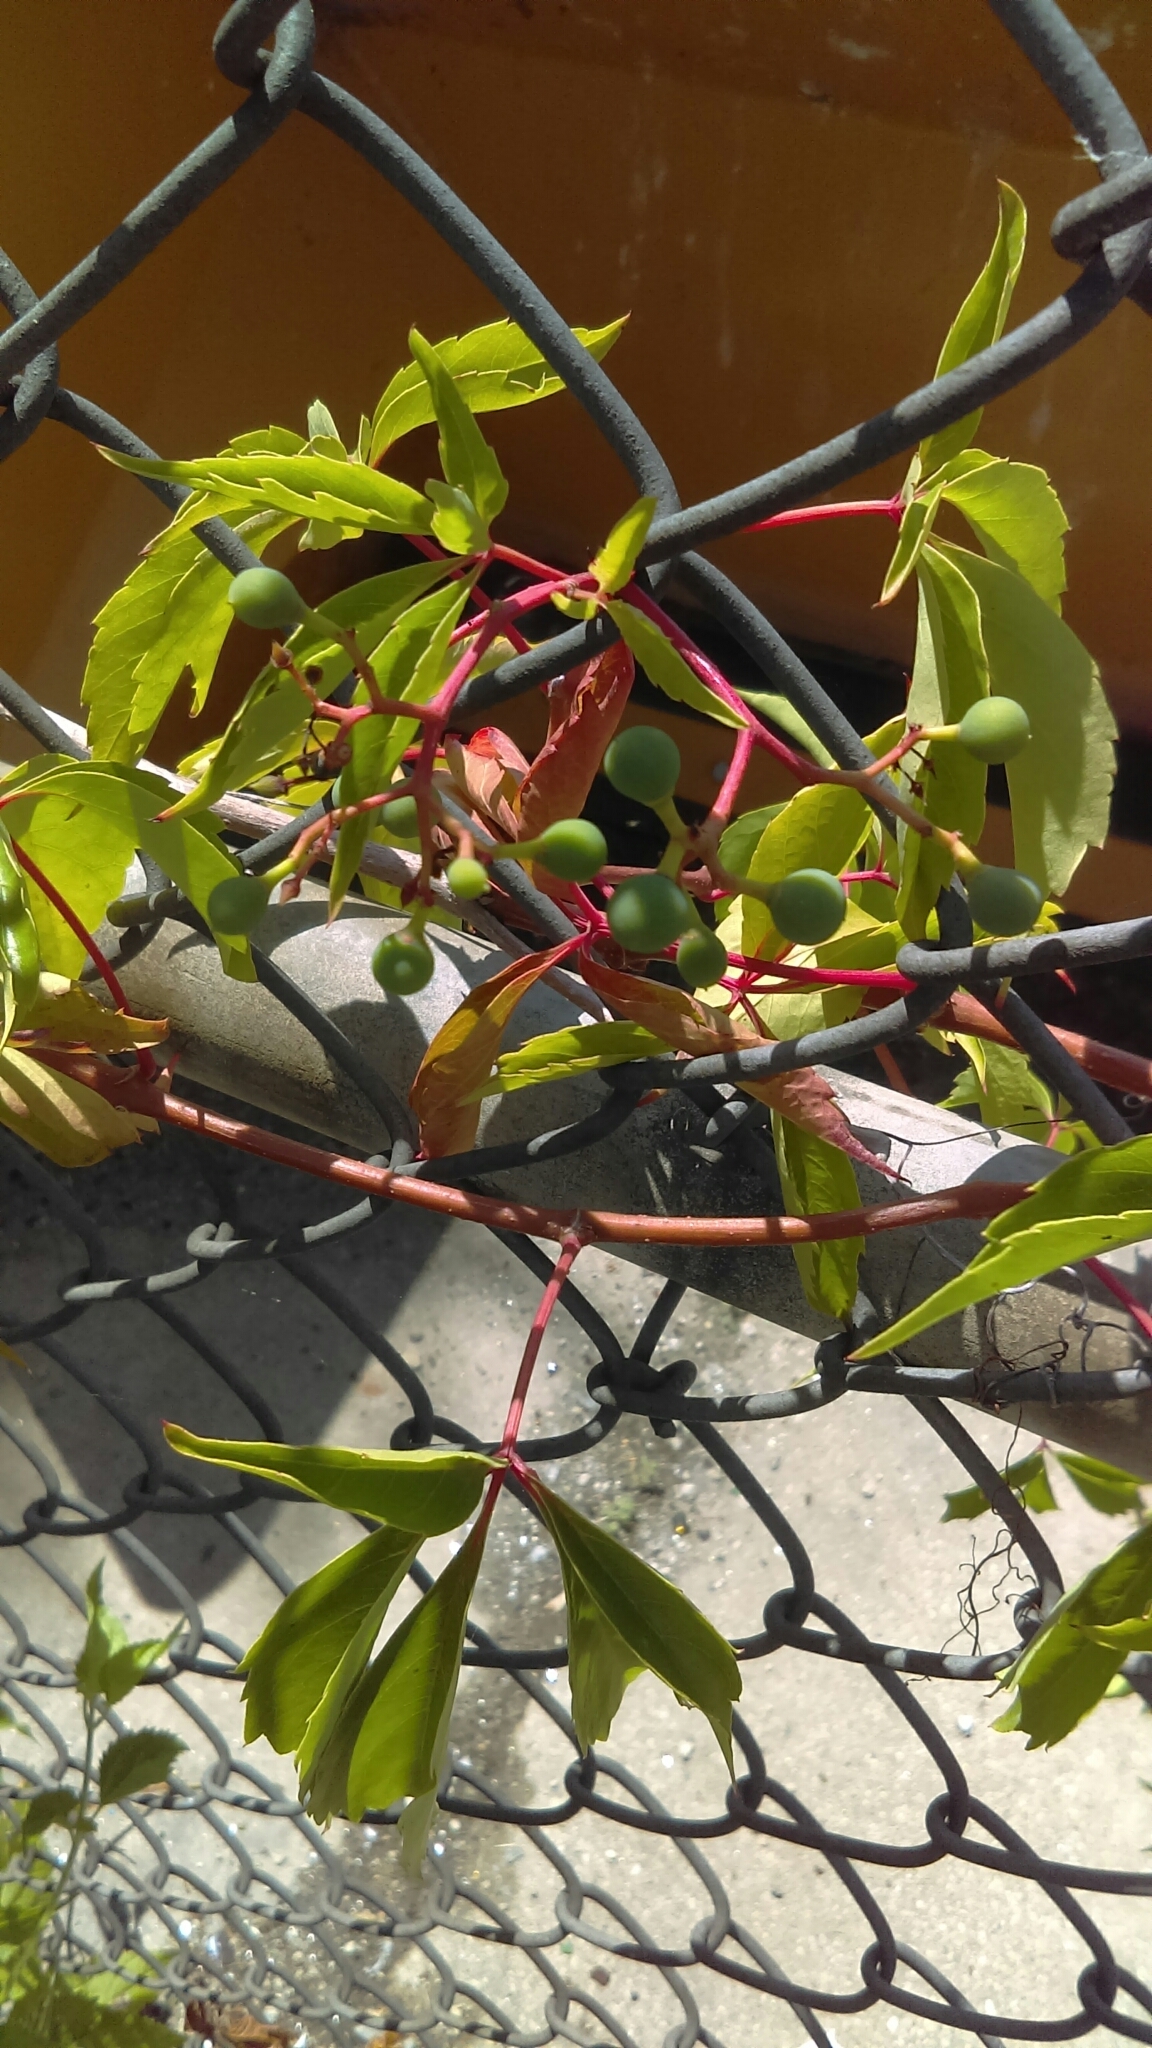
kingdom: Plantae
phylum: Tracheophyta
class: Magnoliopsida
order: Vitales
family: Vitaceae
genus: Parthenocissus
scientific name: Parthenocissus quinquefolia
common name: Virginia-creeper
